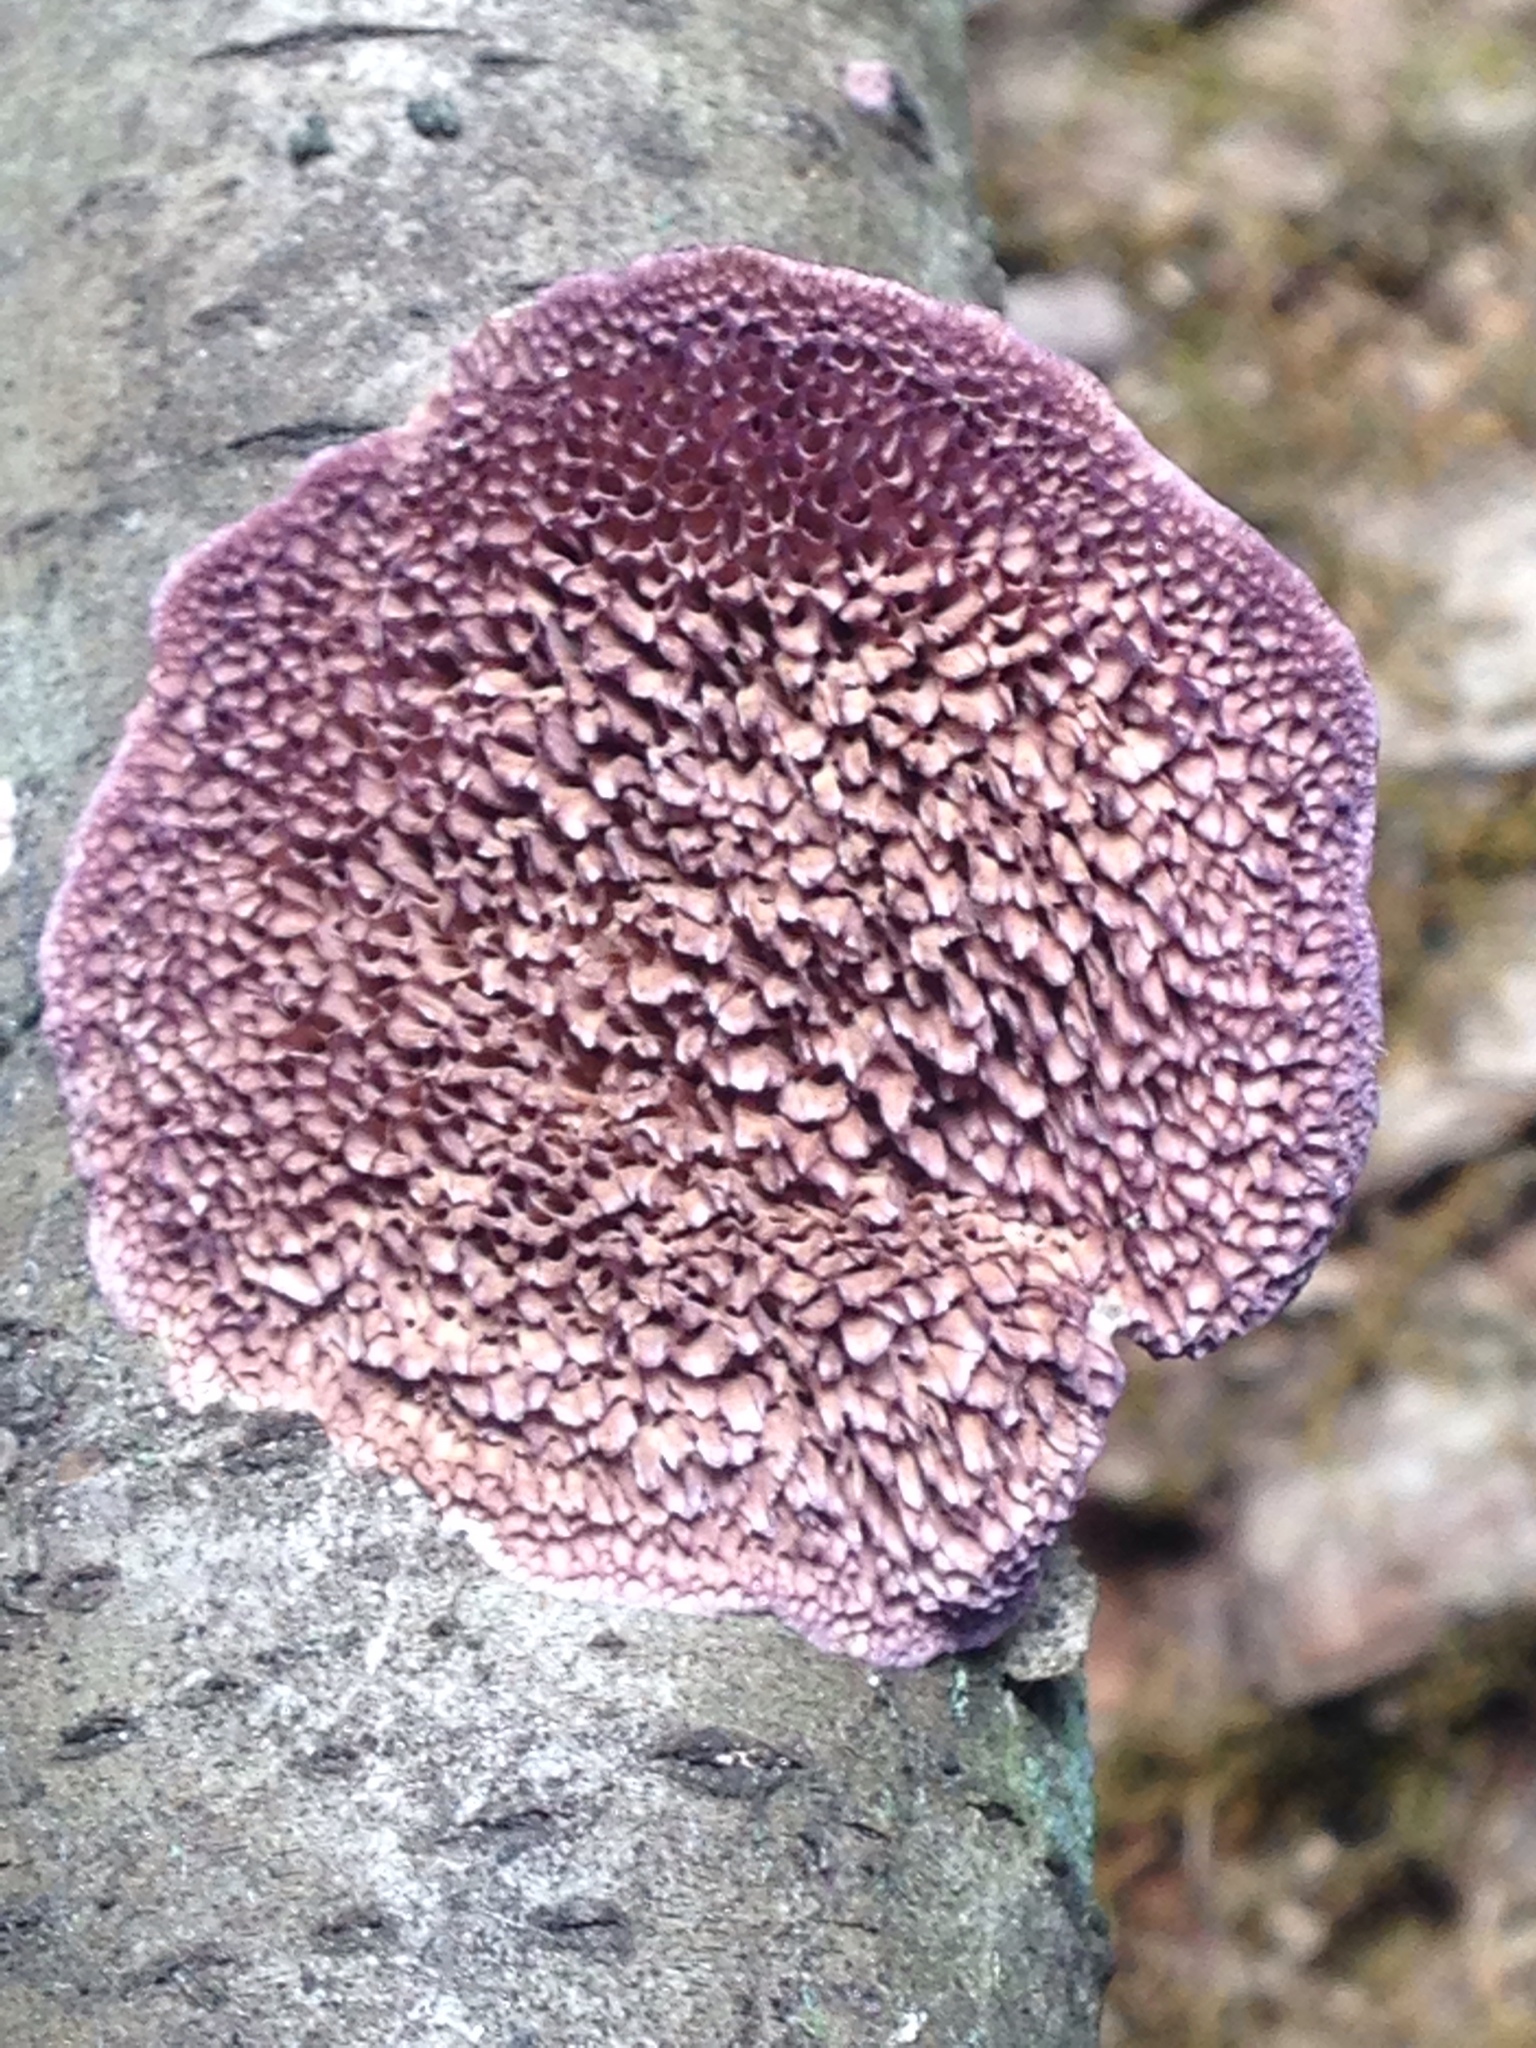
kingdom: Fungi
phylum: Basidiomycota
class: Agaricomycetes
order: Hymenochaetales
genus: Trichaptum
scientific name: Trichaptum biforme
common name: Violet-toothed polypore
